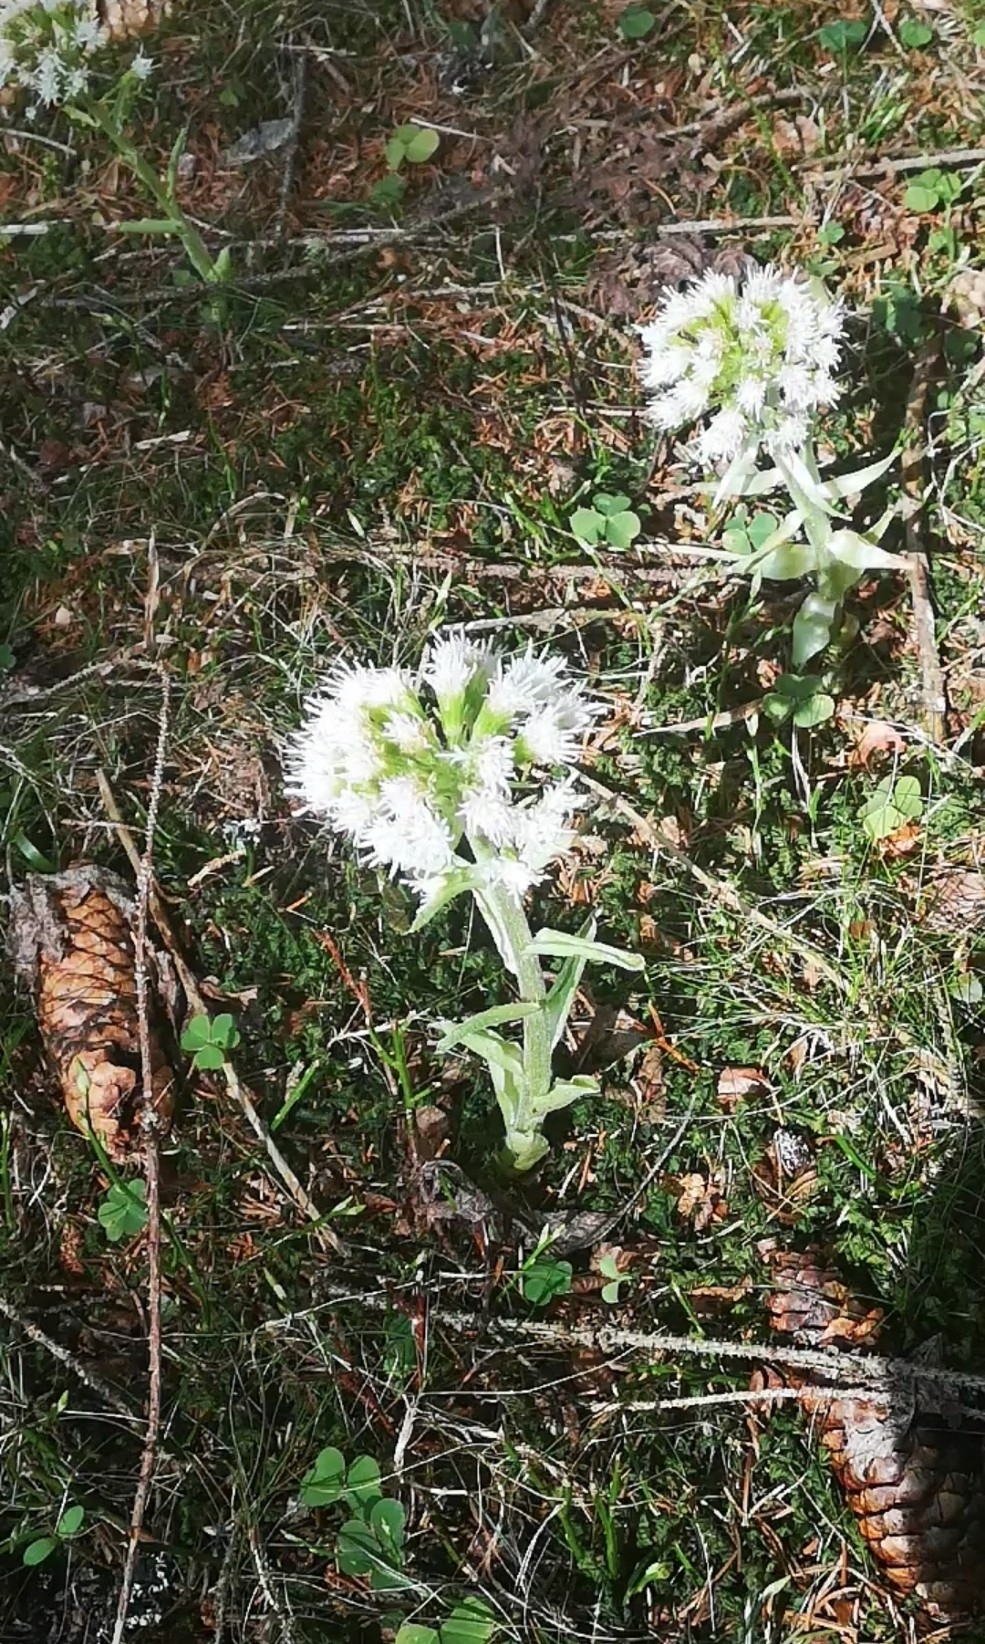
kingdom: Plantae
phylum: Tracheophyta
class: Magnoliopsida
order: Asterales
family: Asteraceae
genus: Petasites
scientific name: Petasites albus
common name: White butterbur
